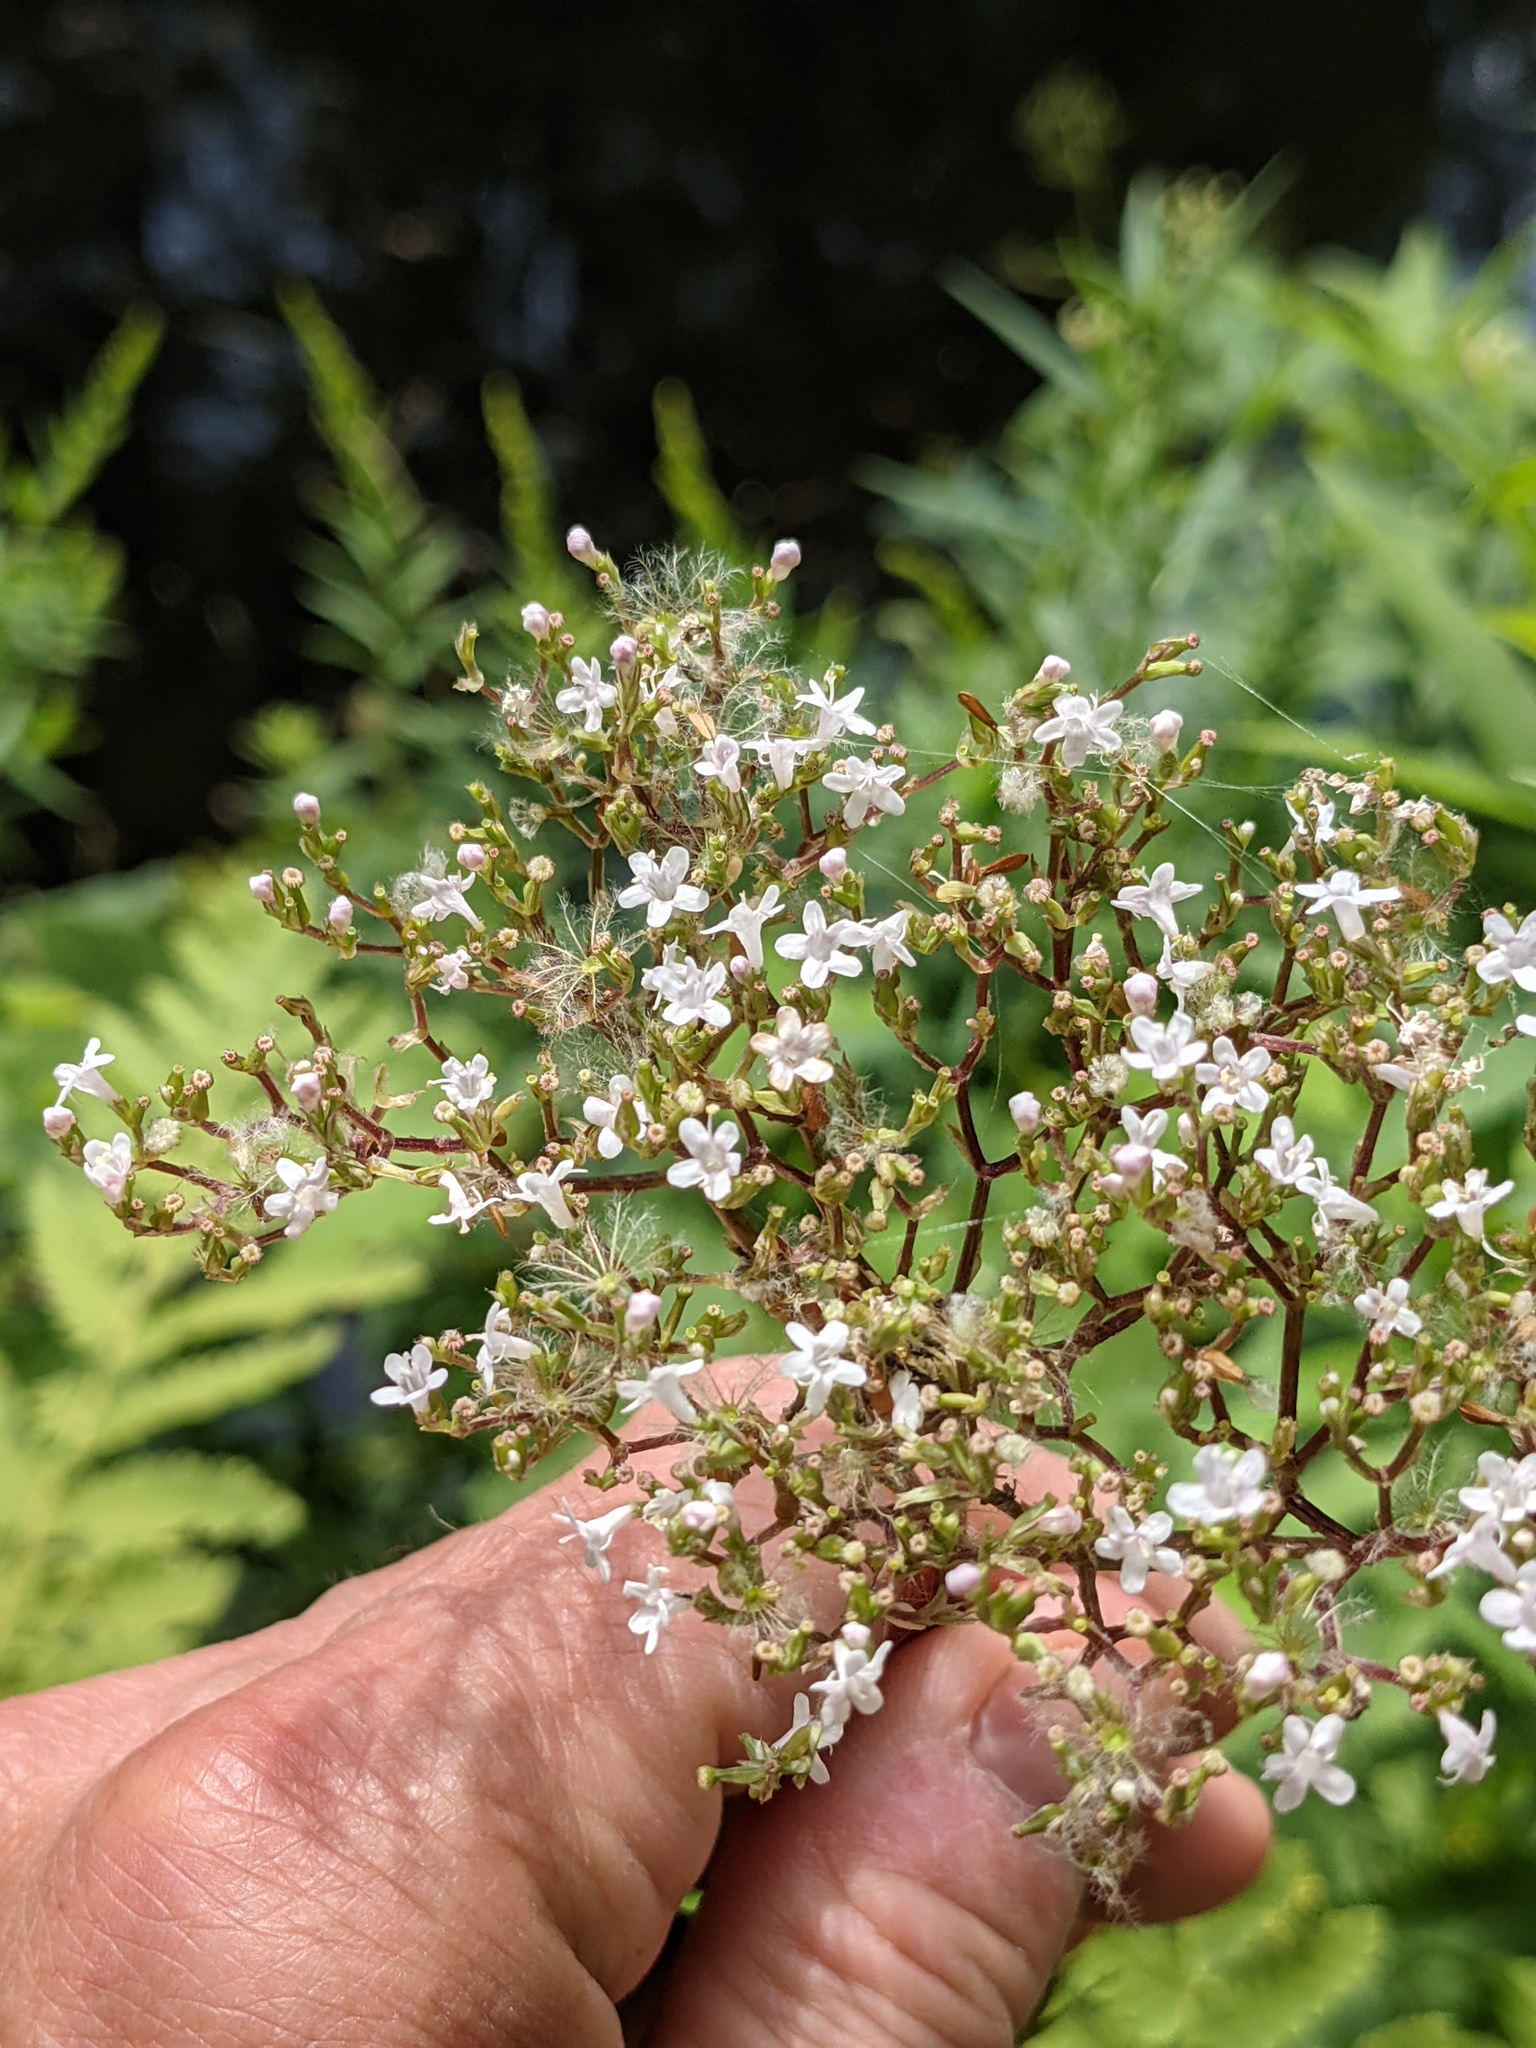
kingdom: Plantae
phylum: Tracheophyta
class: Magnoliopsida
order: Dipsacales
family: Caprifoliaceae
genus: Valeriana
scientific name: Valeriana officinalis
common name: Common valerian
